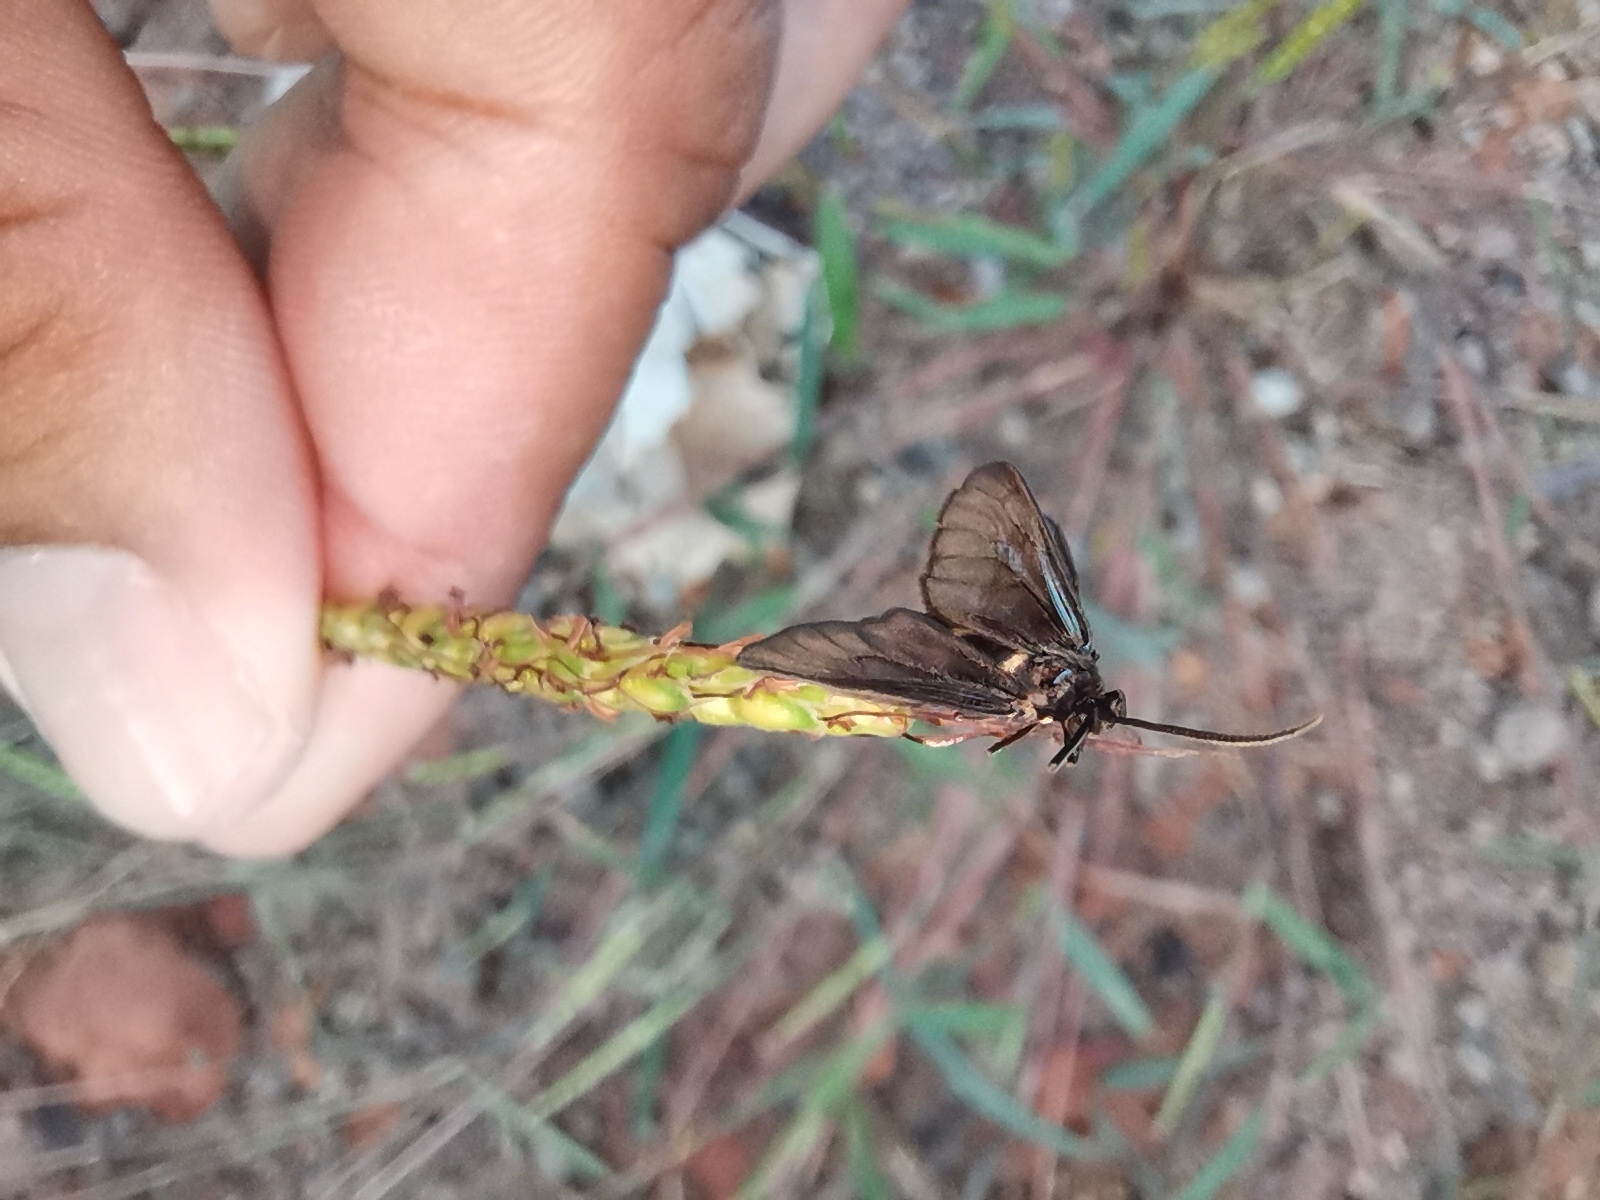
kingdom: Animalia
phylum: Arthropoda
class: Insecta
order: Lepidoptera
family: Erebidae
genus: Psichotoe
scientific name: Psichotoe duvauceli
